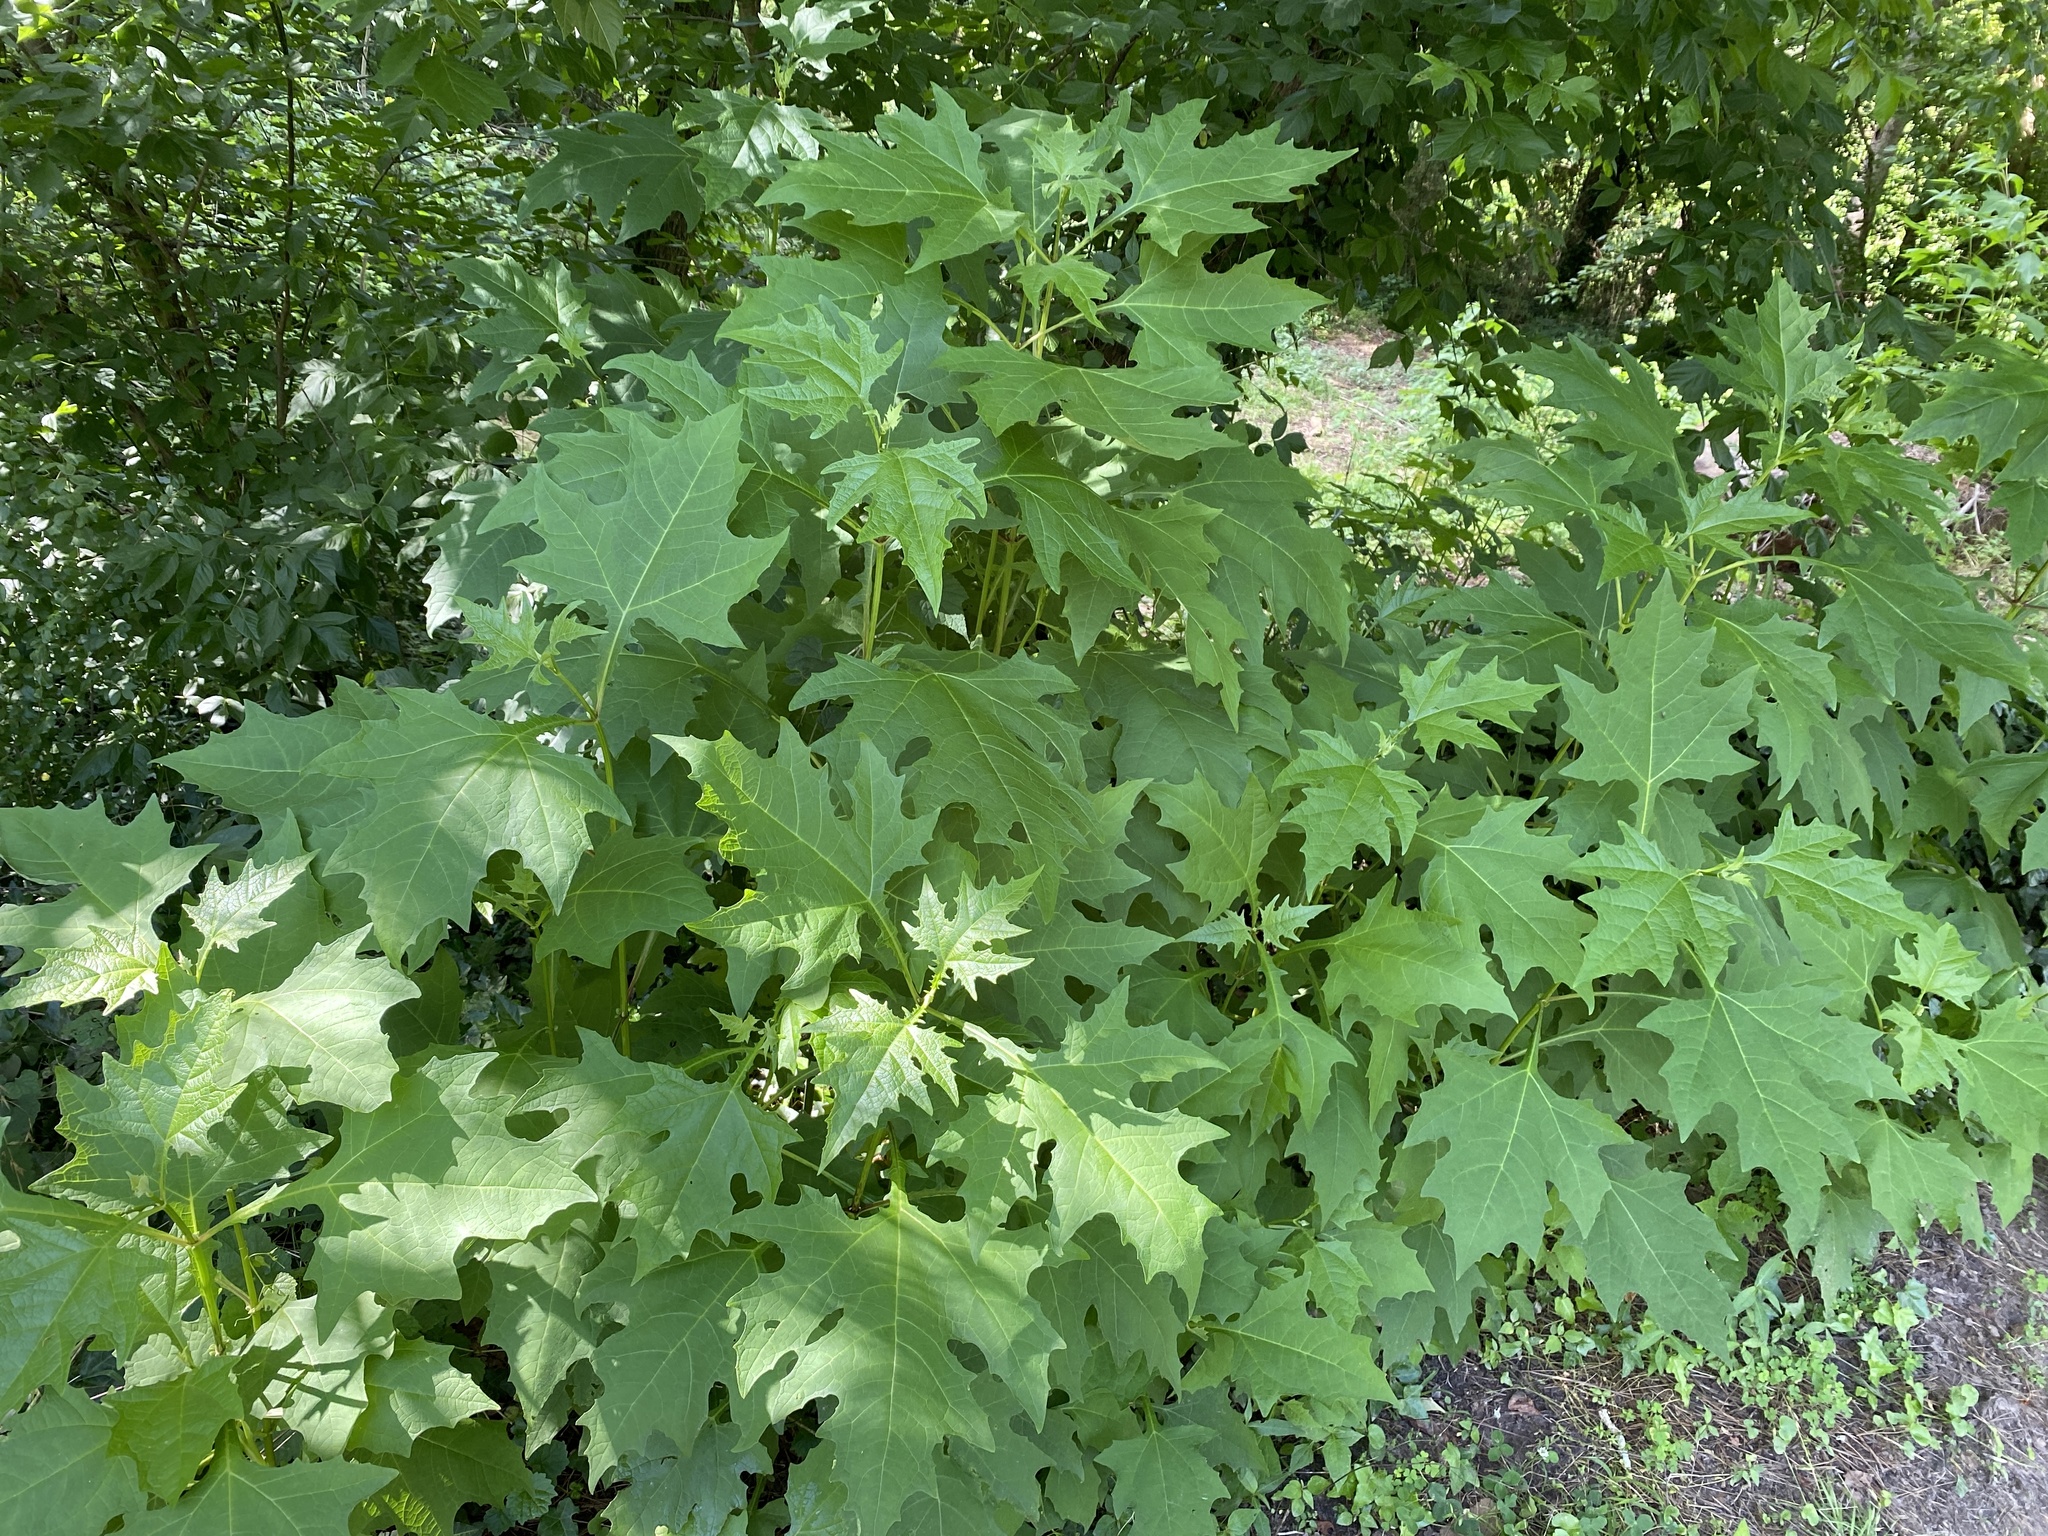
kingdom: Plantae
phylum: Tracheophyta
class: Magnoliopsida
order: Asterales
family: Asteraceae
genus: Smallanthus
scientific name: Smallanthus uvedalia
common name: Bear's-foot
